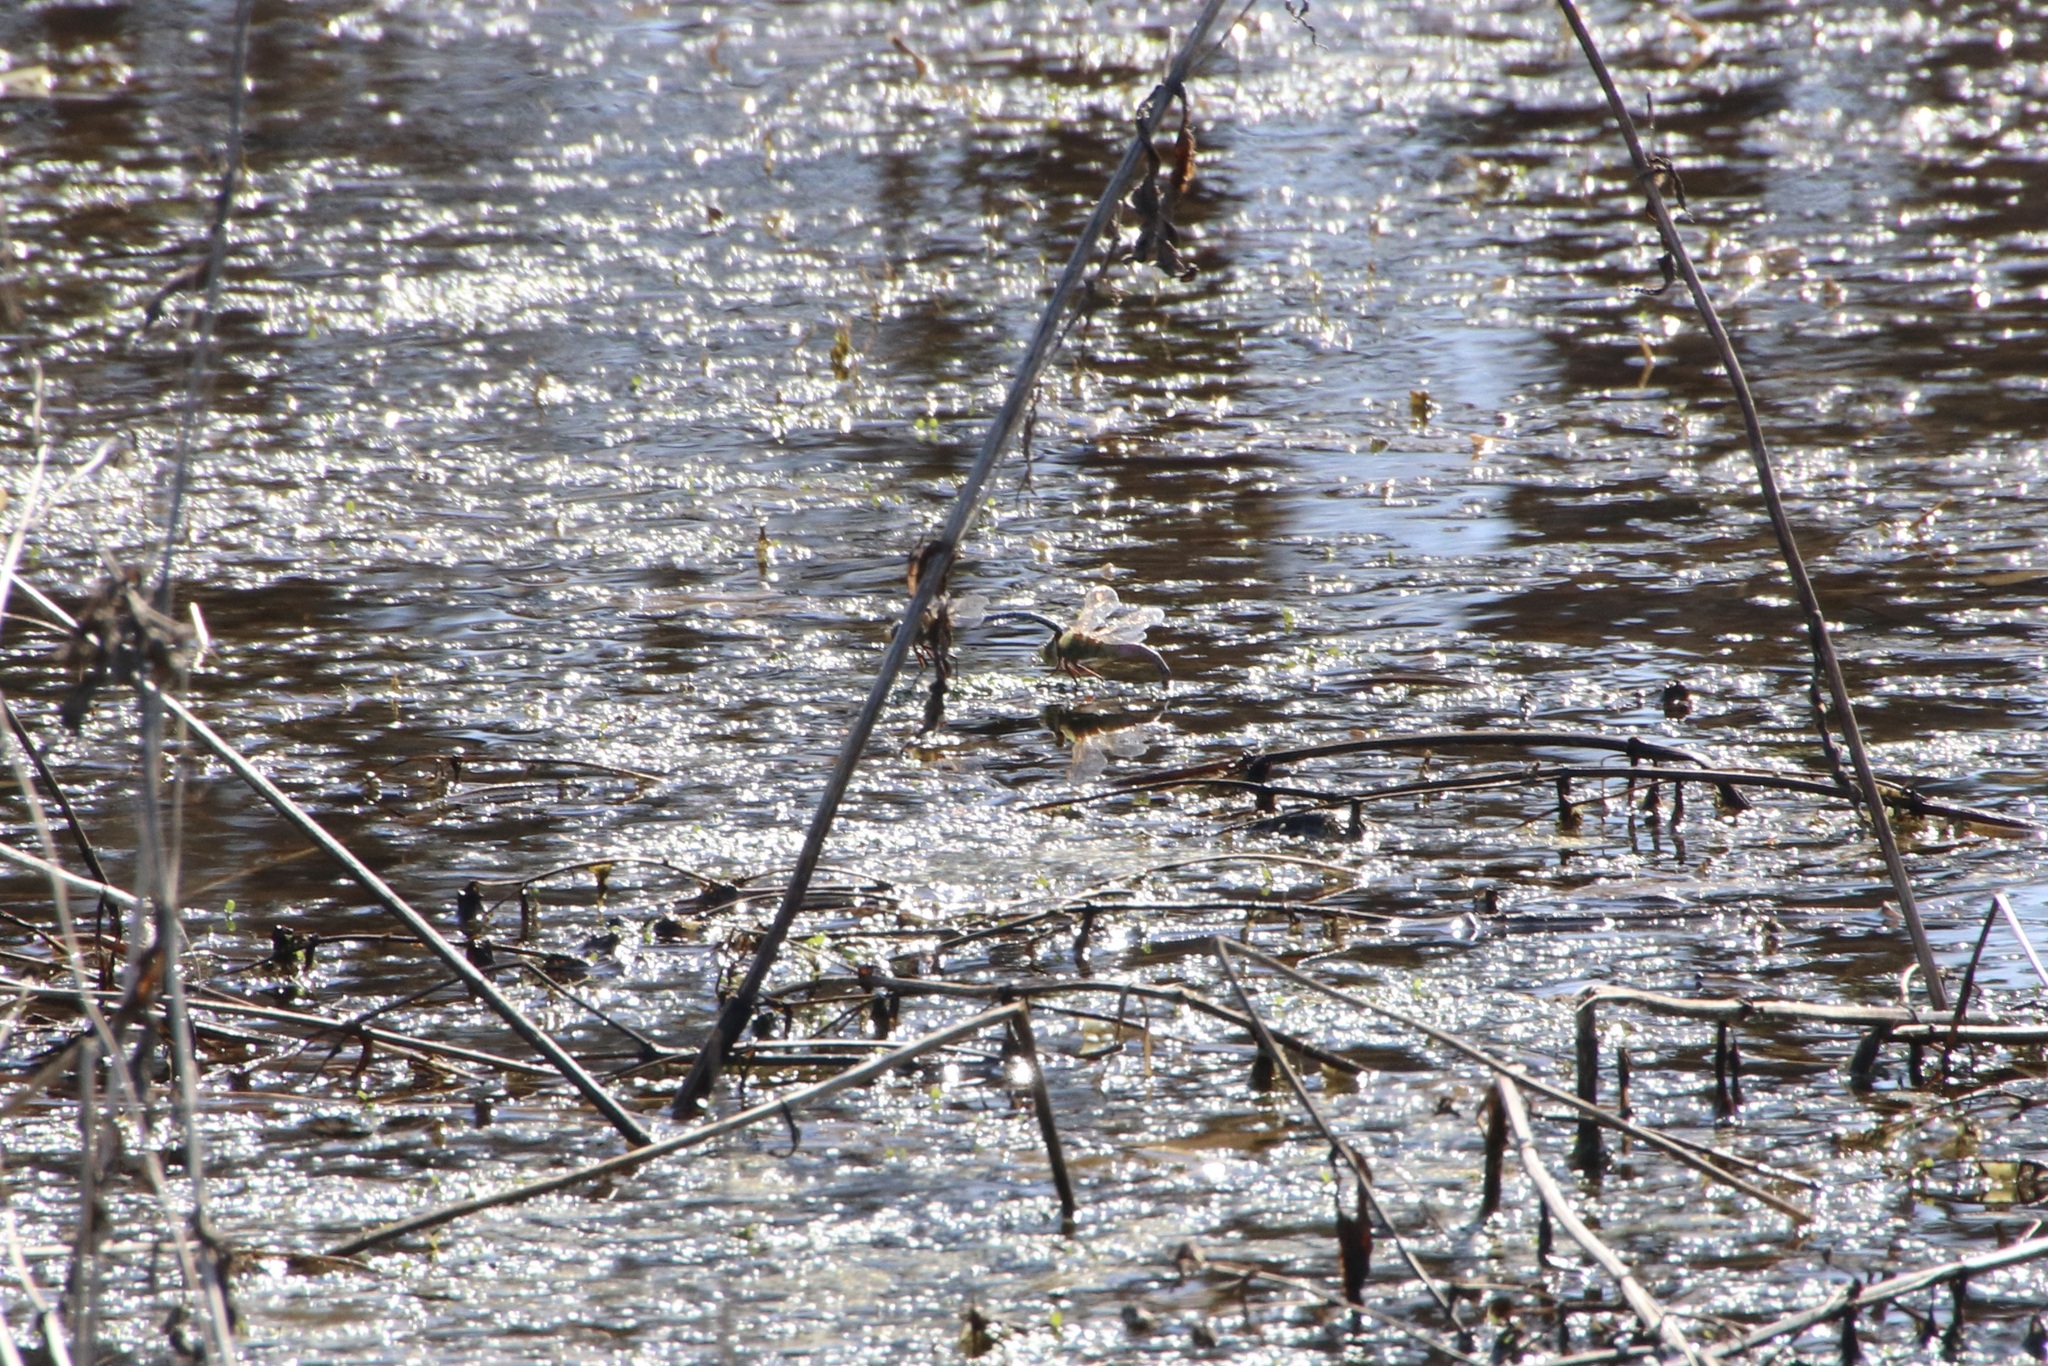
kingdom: Animalia
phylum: Arthropoda
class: Insecta
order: Odonata
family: Aeshnidae
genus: Anax
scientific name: Anax junius
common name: Common green darner
